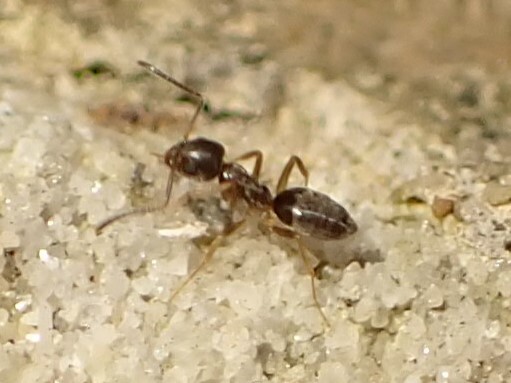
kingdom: Animalia
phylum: Arthropoda
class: Insecta
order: Hymenoptera
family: Formicidae
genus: Tapinoma
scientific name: Tapinoma sessile
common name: Odorous house ant
